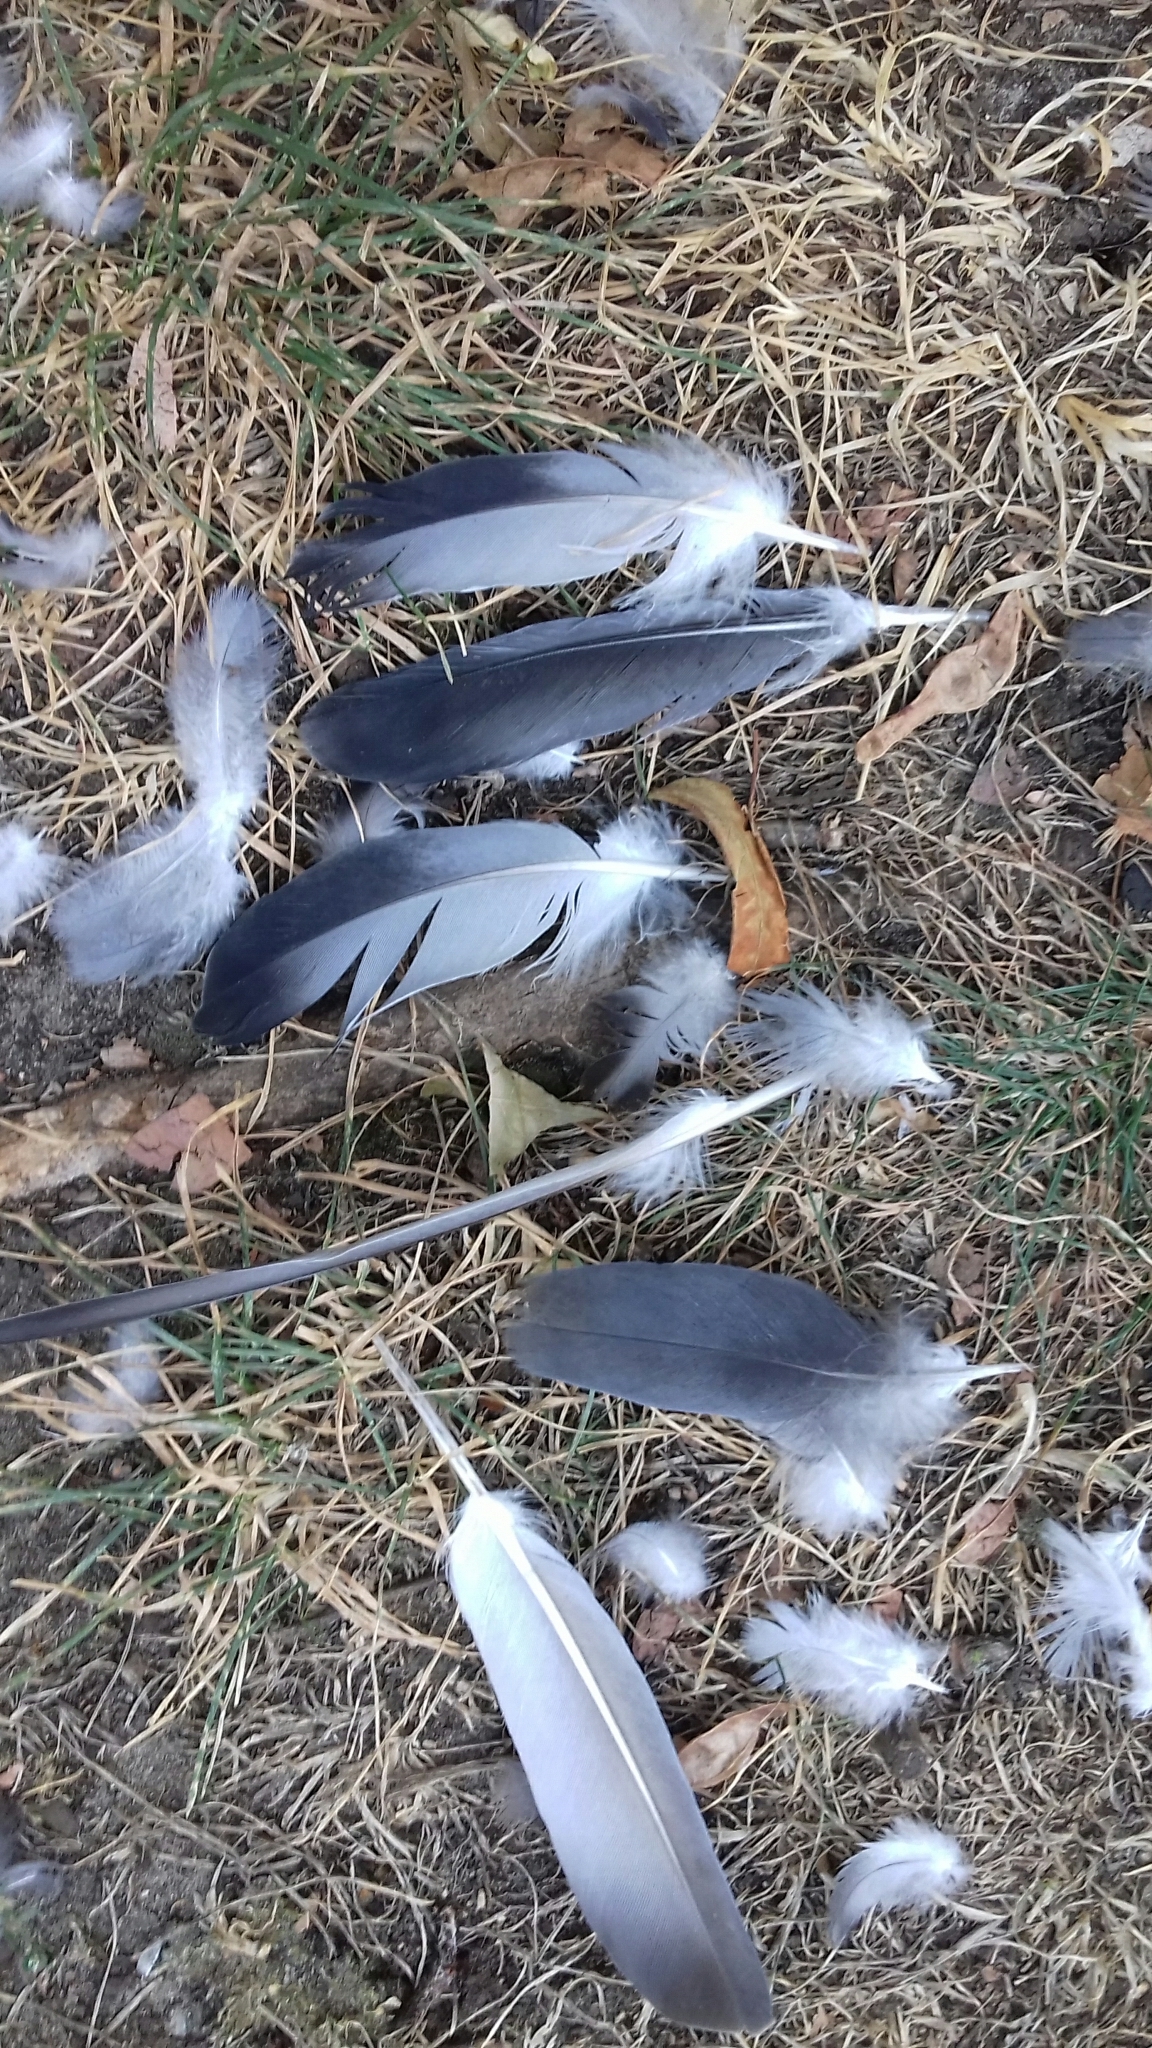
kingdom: Animalia
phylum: Chordata
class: Aves
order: Columbiformes
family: Columbidae
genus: Columba
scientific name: Columba livia
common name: Rock pigeon
